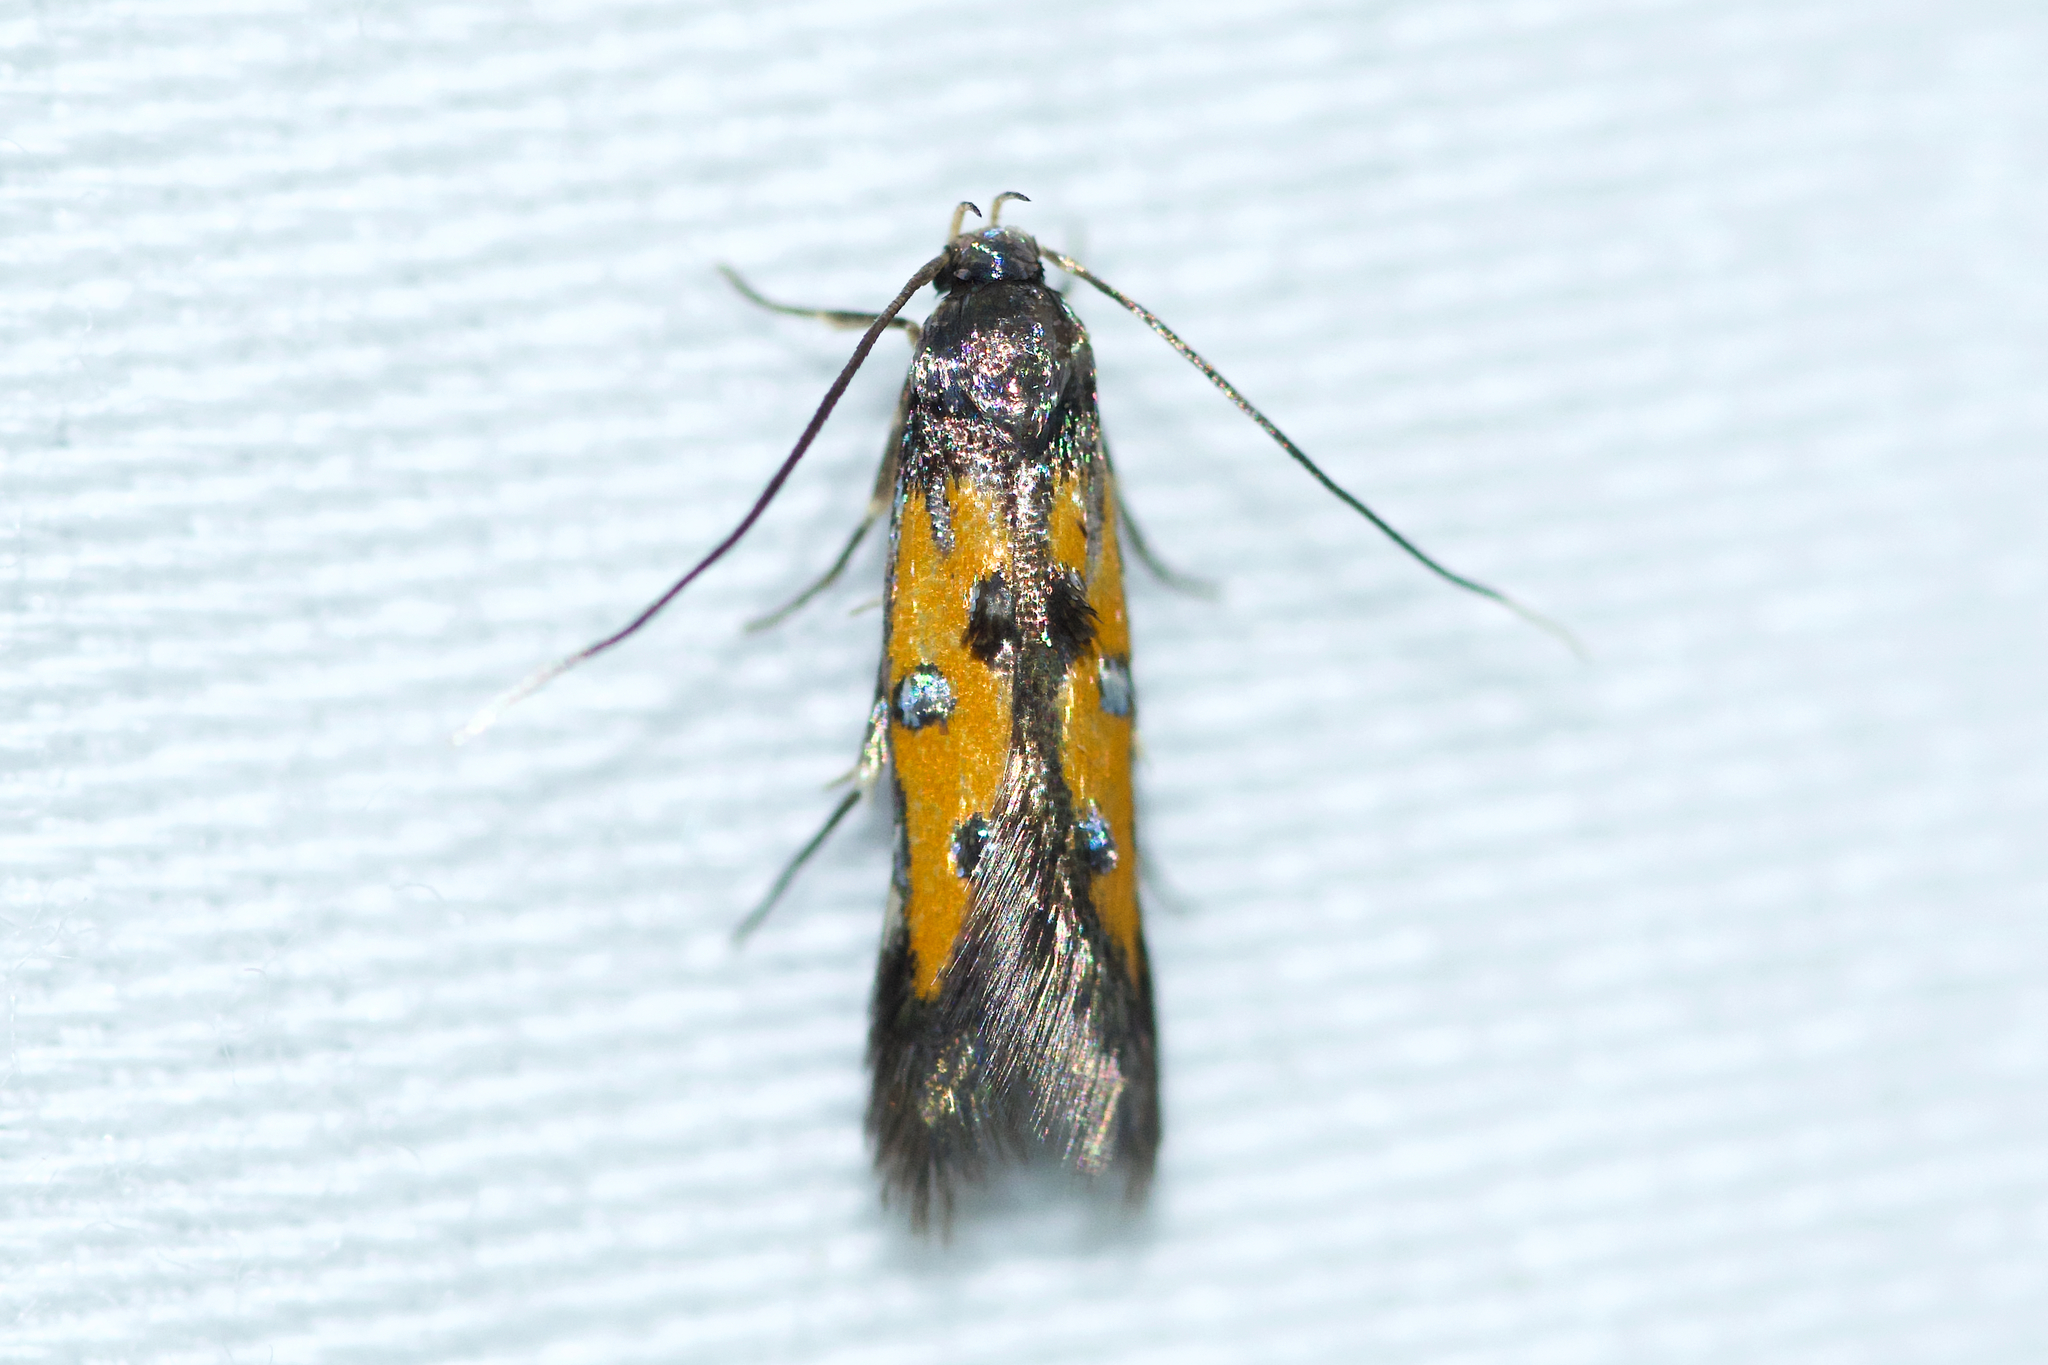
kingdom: Animalia
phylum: Arthropoda
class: Insecta
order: Lepidoptera
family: Elachistidae
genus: Chrysoclista
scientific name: Chrysoclista linneela
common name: Lime cosmet
